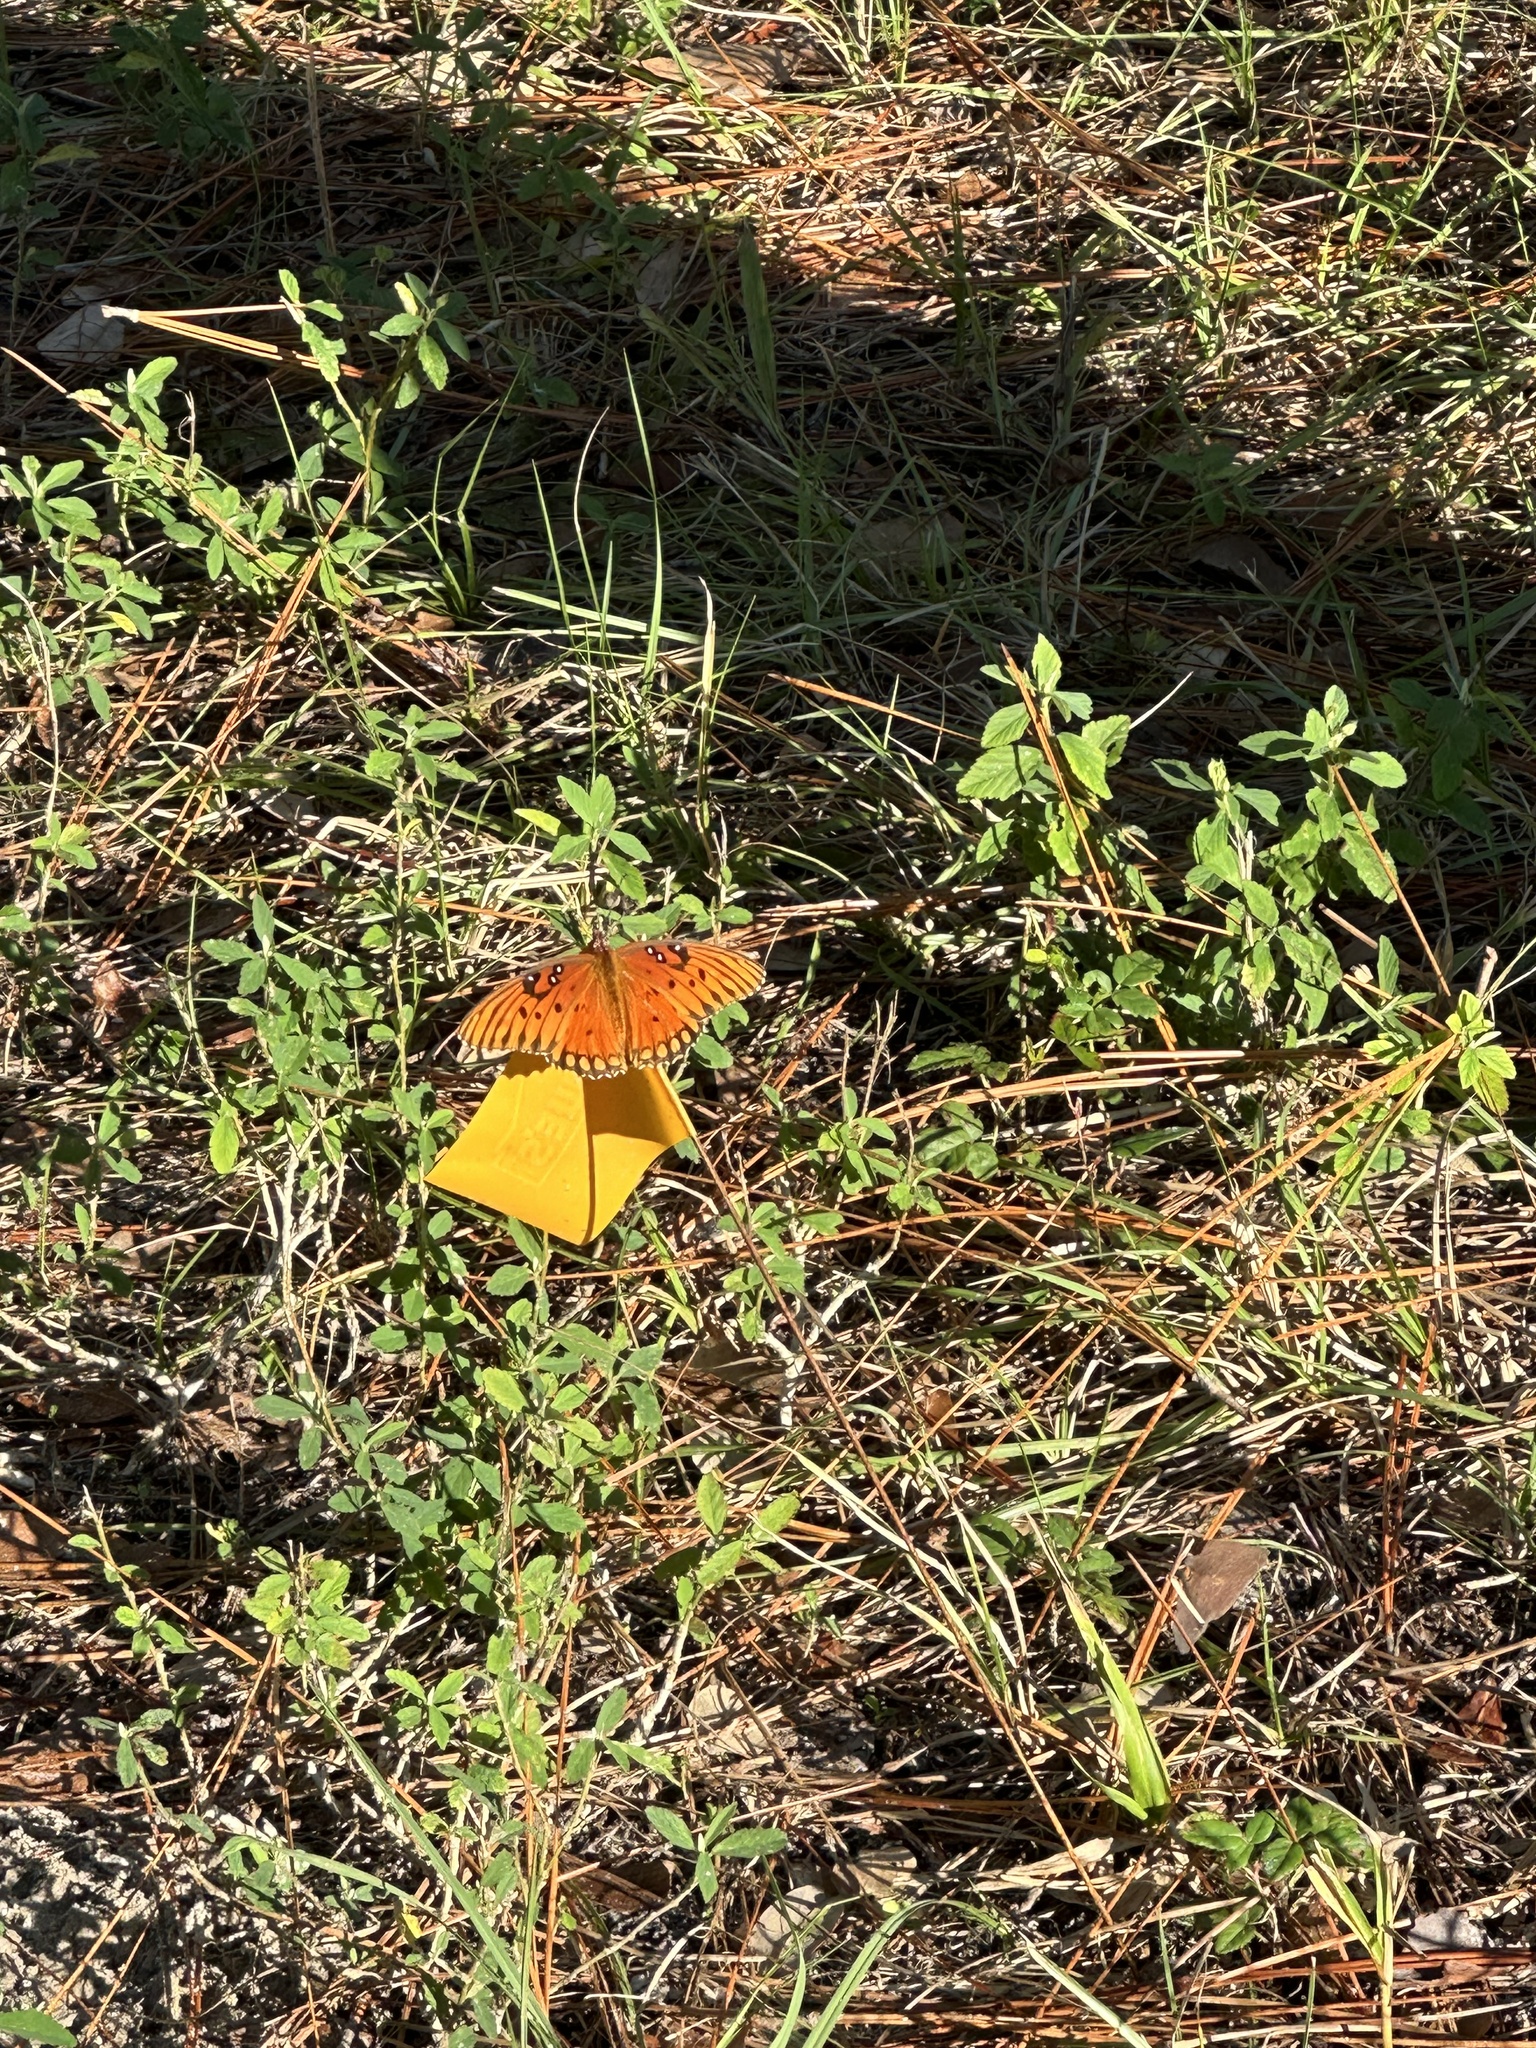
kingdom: Animalia
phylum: Arthropoda
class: Insecta
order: Lepidoptera
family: Nymphalidae
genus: Dione
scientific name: Dione vanillae
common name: Gulf fritillary
